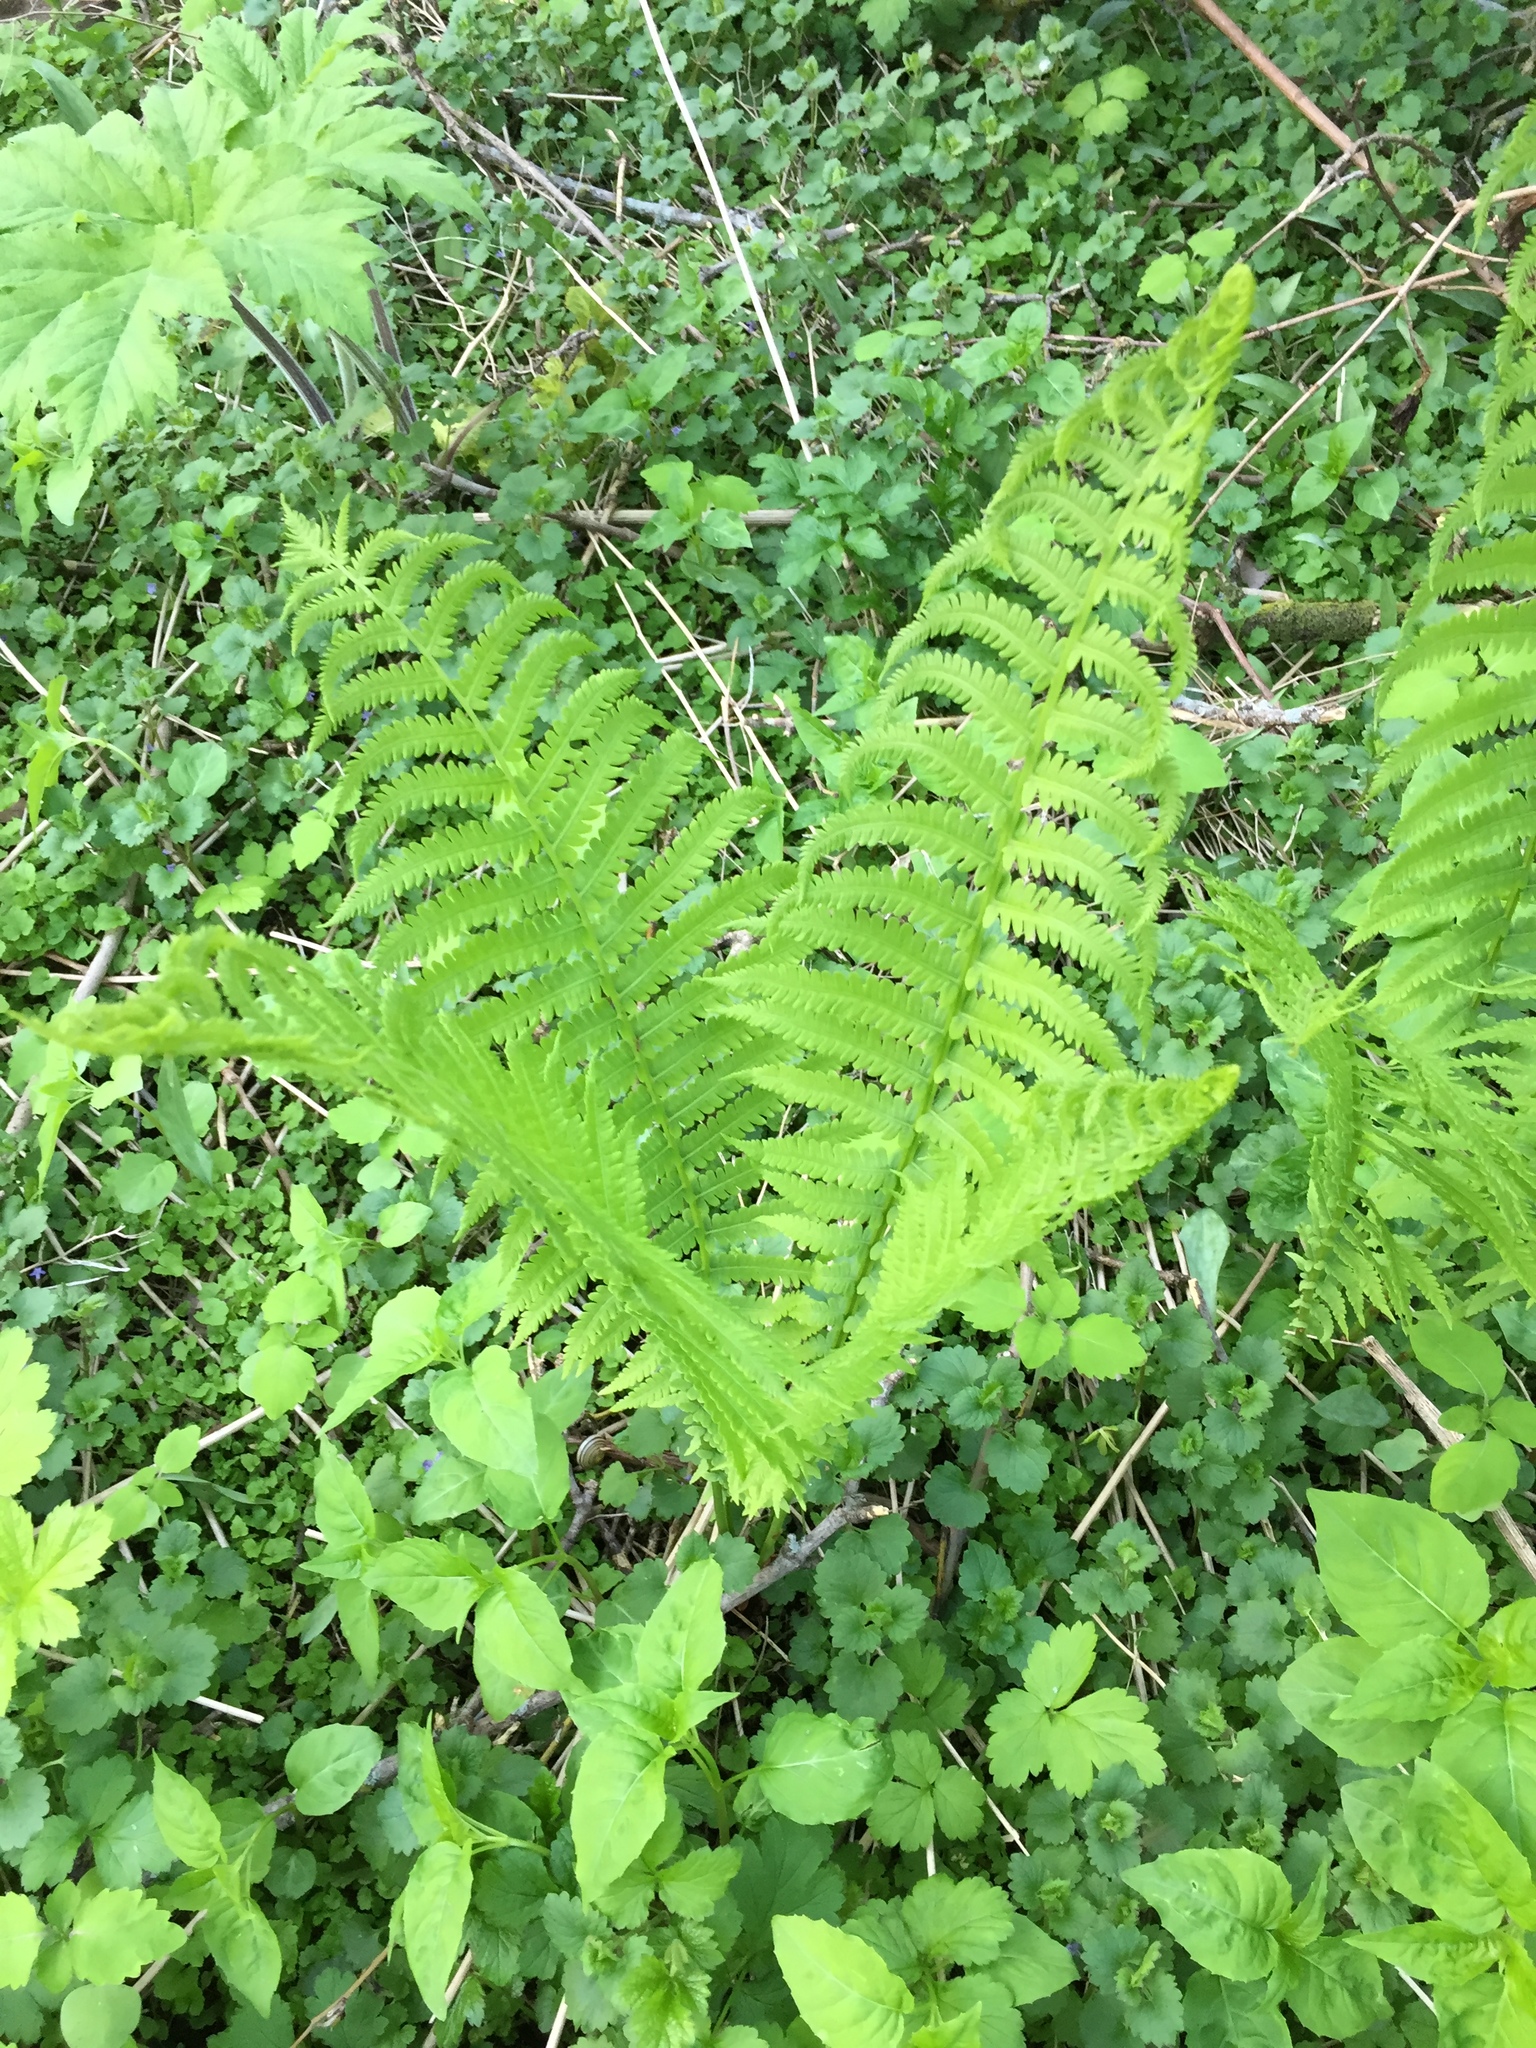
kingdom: Plantae
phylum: Tracheophyta
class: Polypodiopsida
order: Polypodiales
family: Onocleaceae
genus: Matteuccia
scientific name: Matteuccia struthiopteris
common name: Ostrich fern
